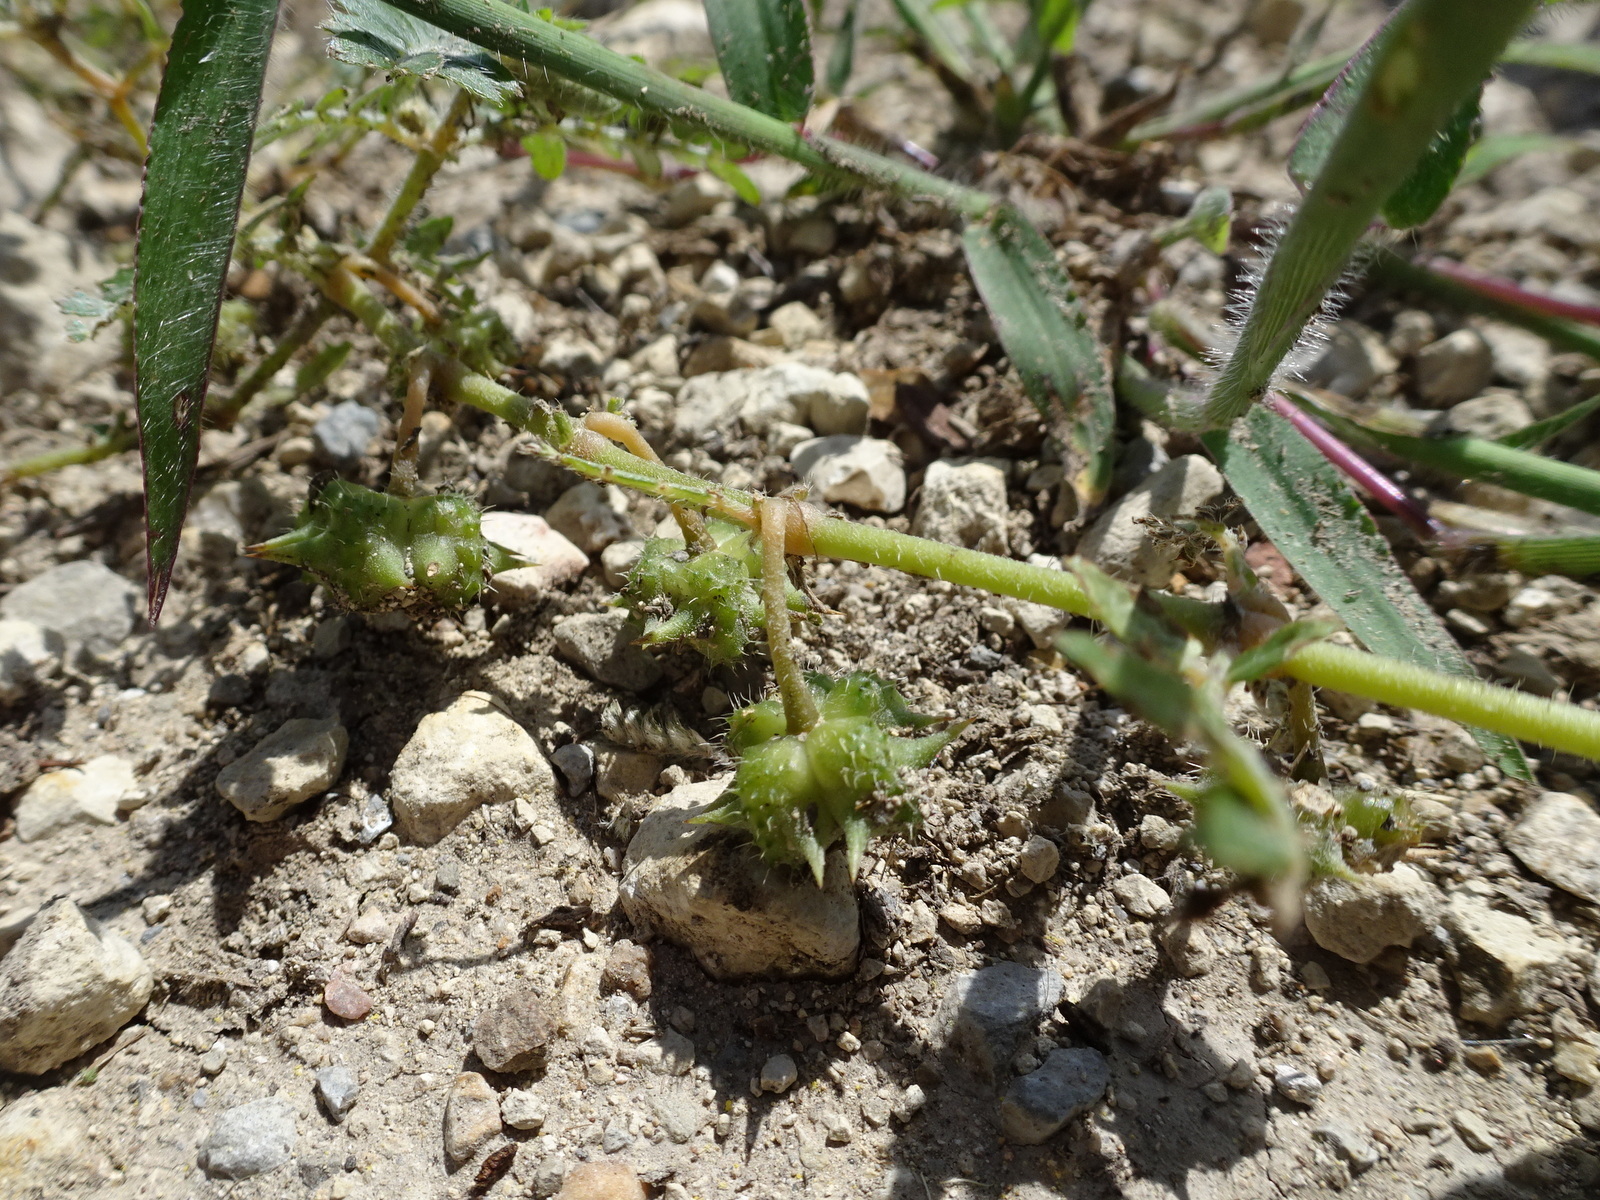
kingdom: Plantae
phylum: Tracheophyta
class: Magnoliopsida
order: Zygophyllales
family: Zygophyllaceae
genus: Tribulus
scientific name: Tribulus terrestris
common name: Puncturevine
